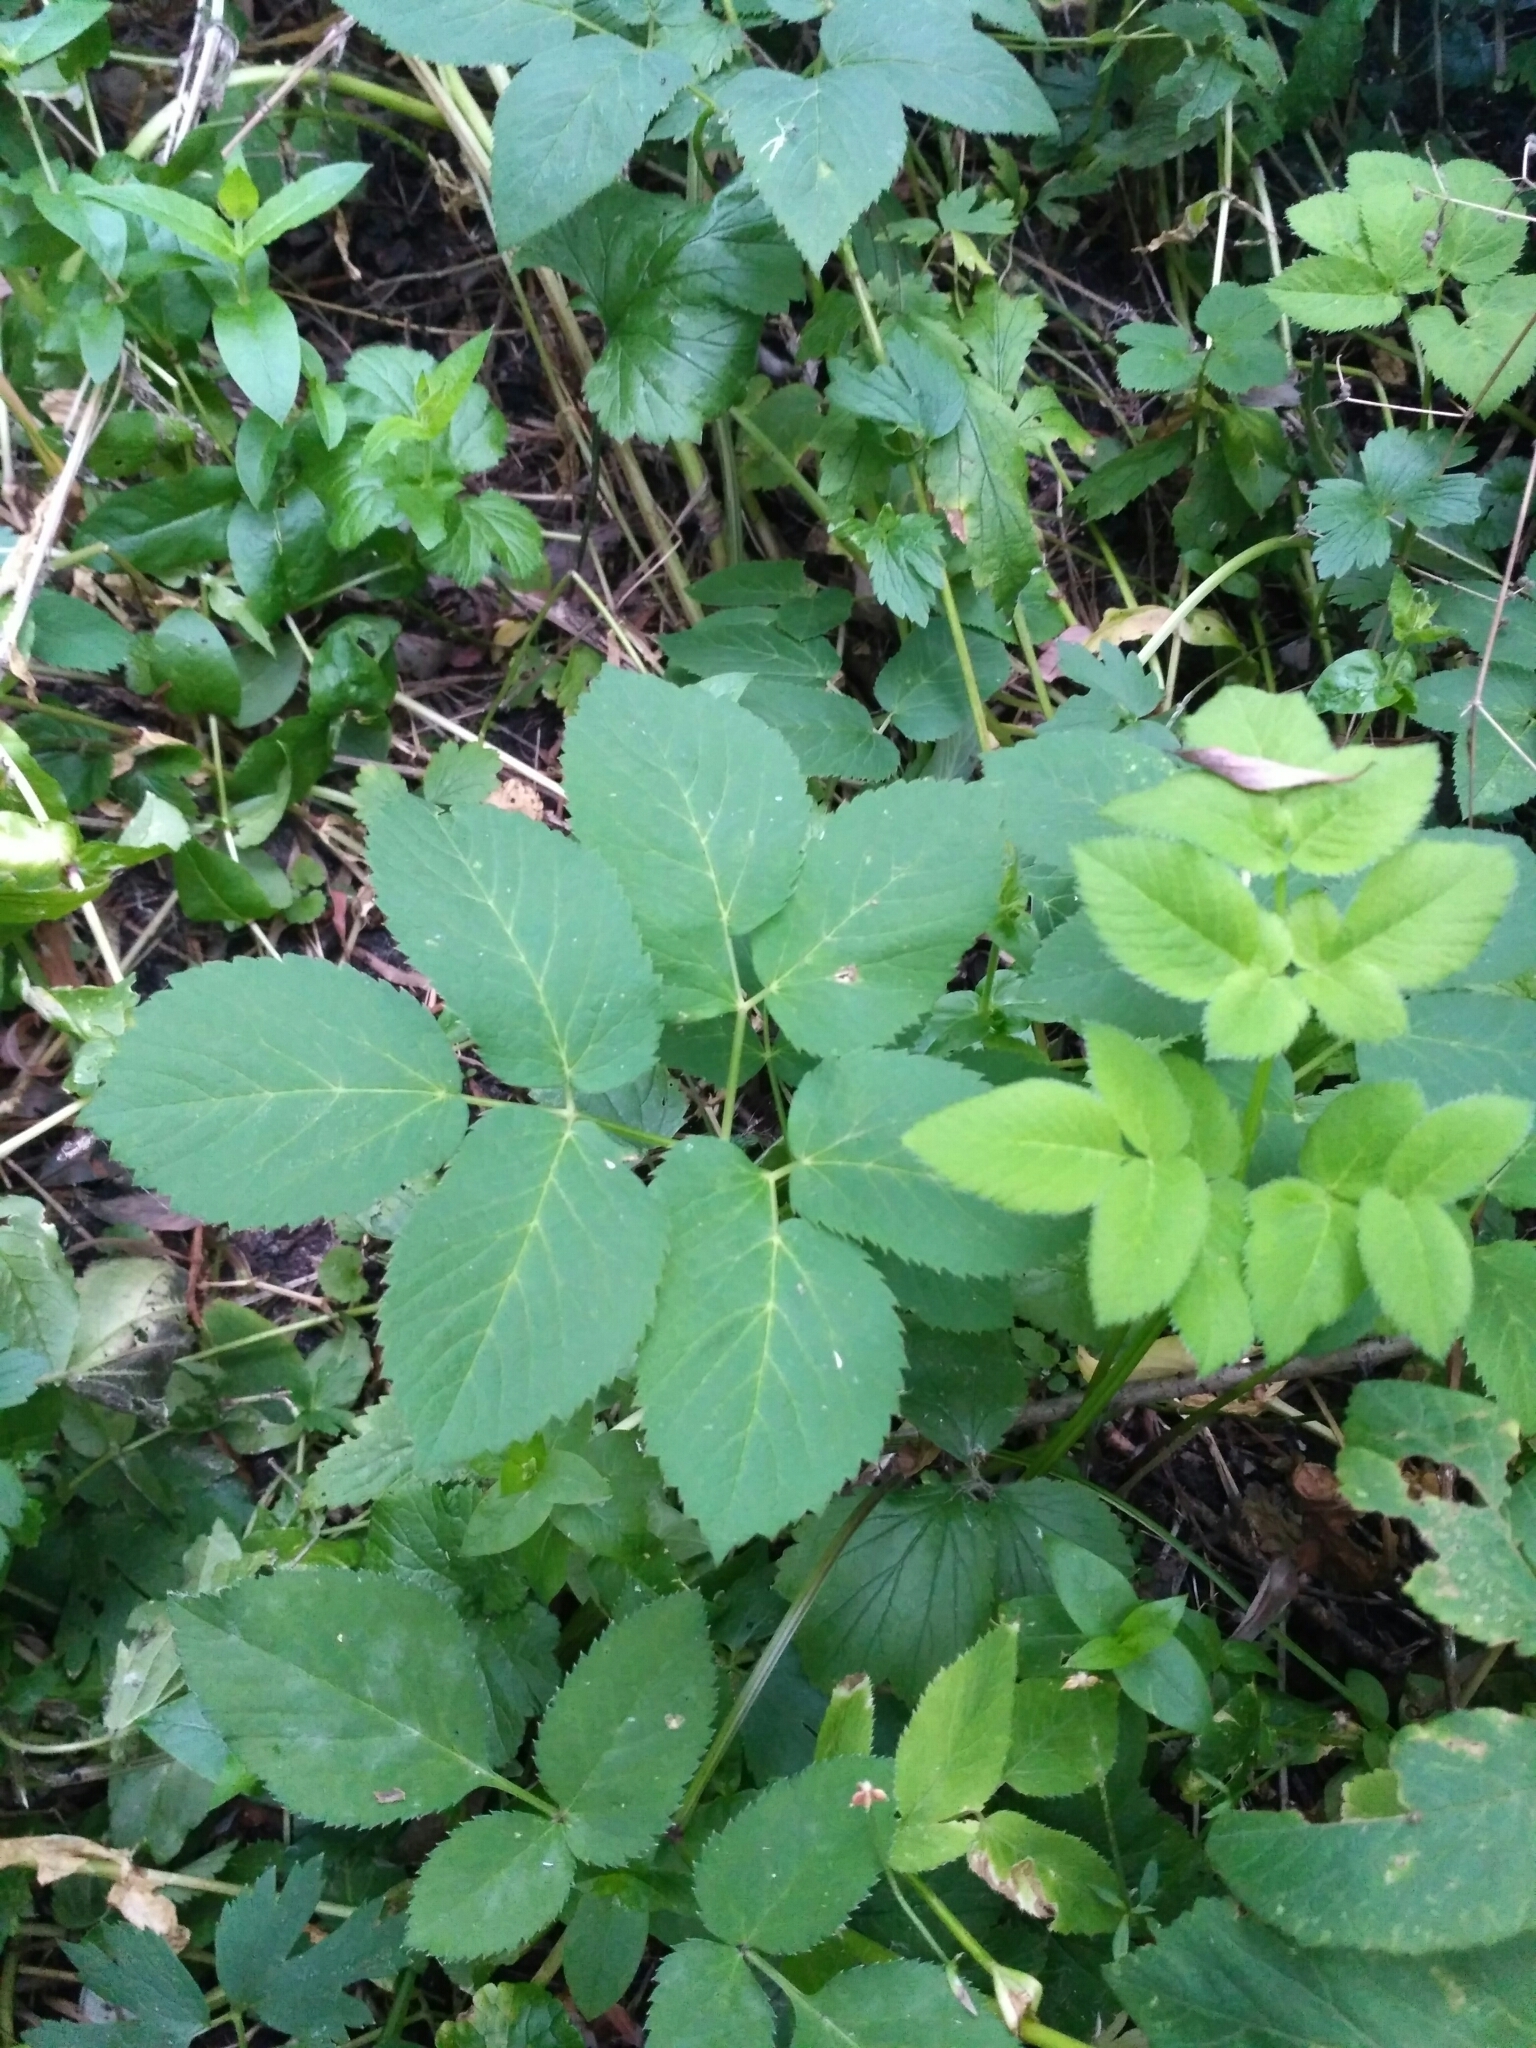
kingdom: Plantae
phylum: Tracheophyta
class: Magnoliopsida
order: Apiales
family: Apiaceae
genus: Angelica
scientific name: Angelica archangelica
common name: Garden angelica
